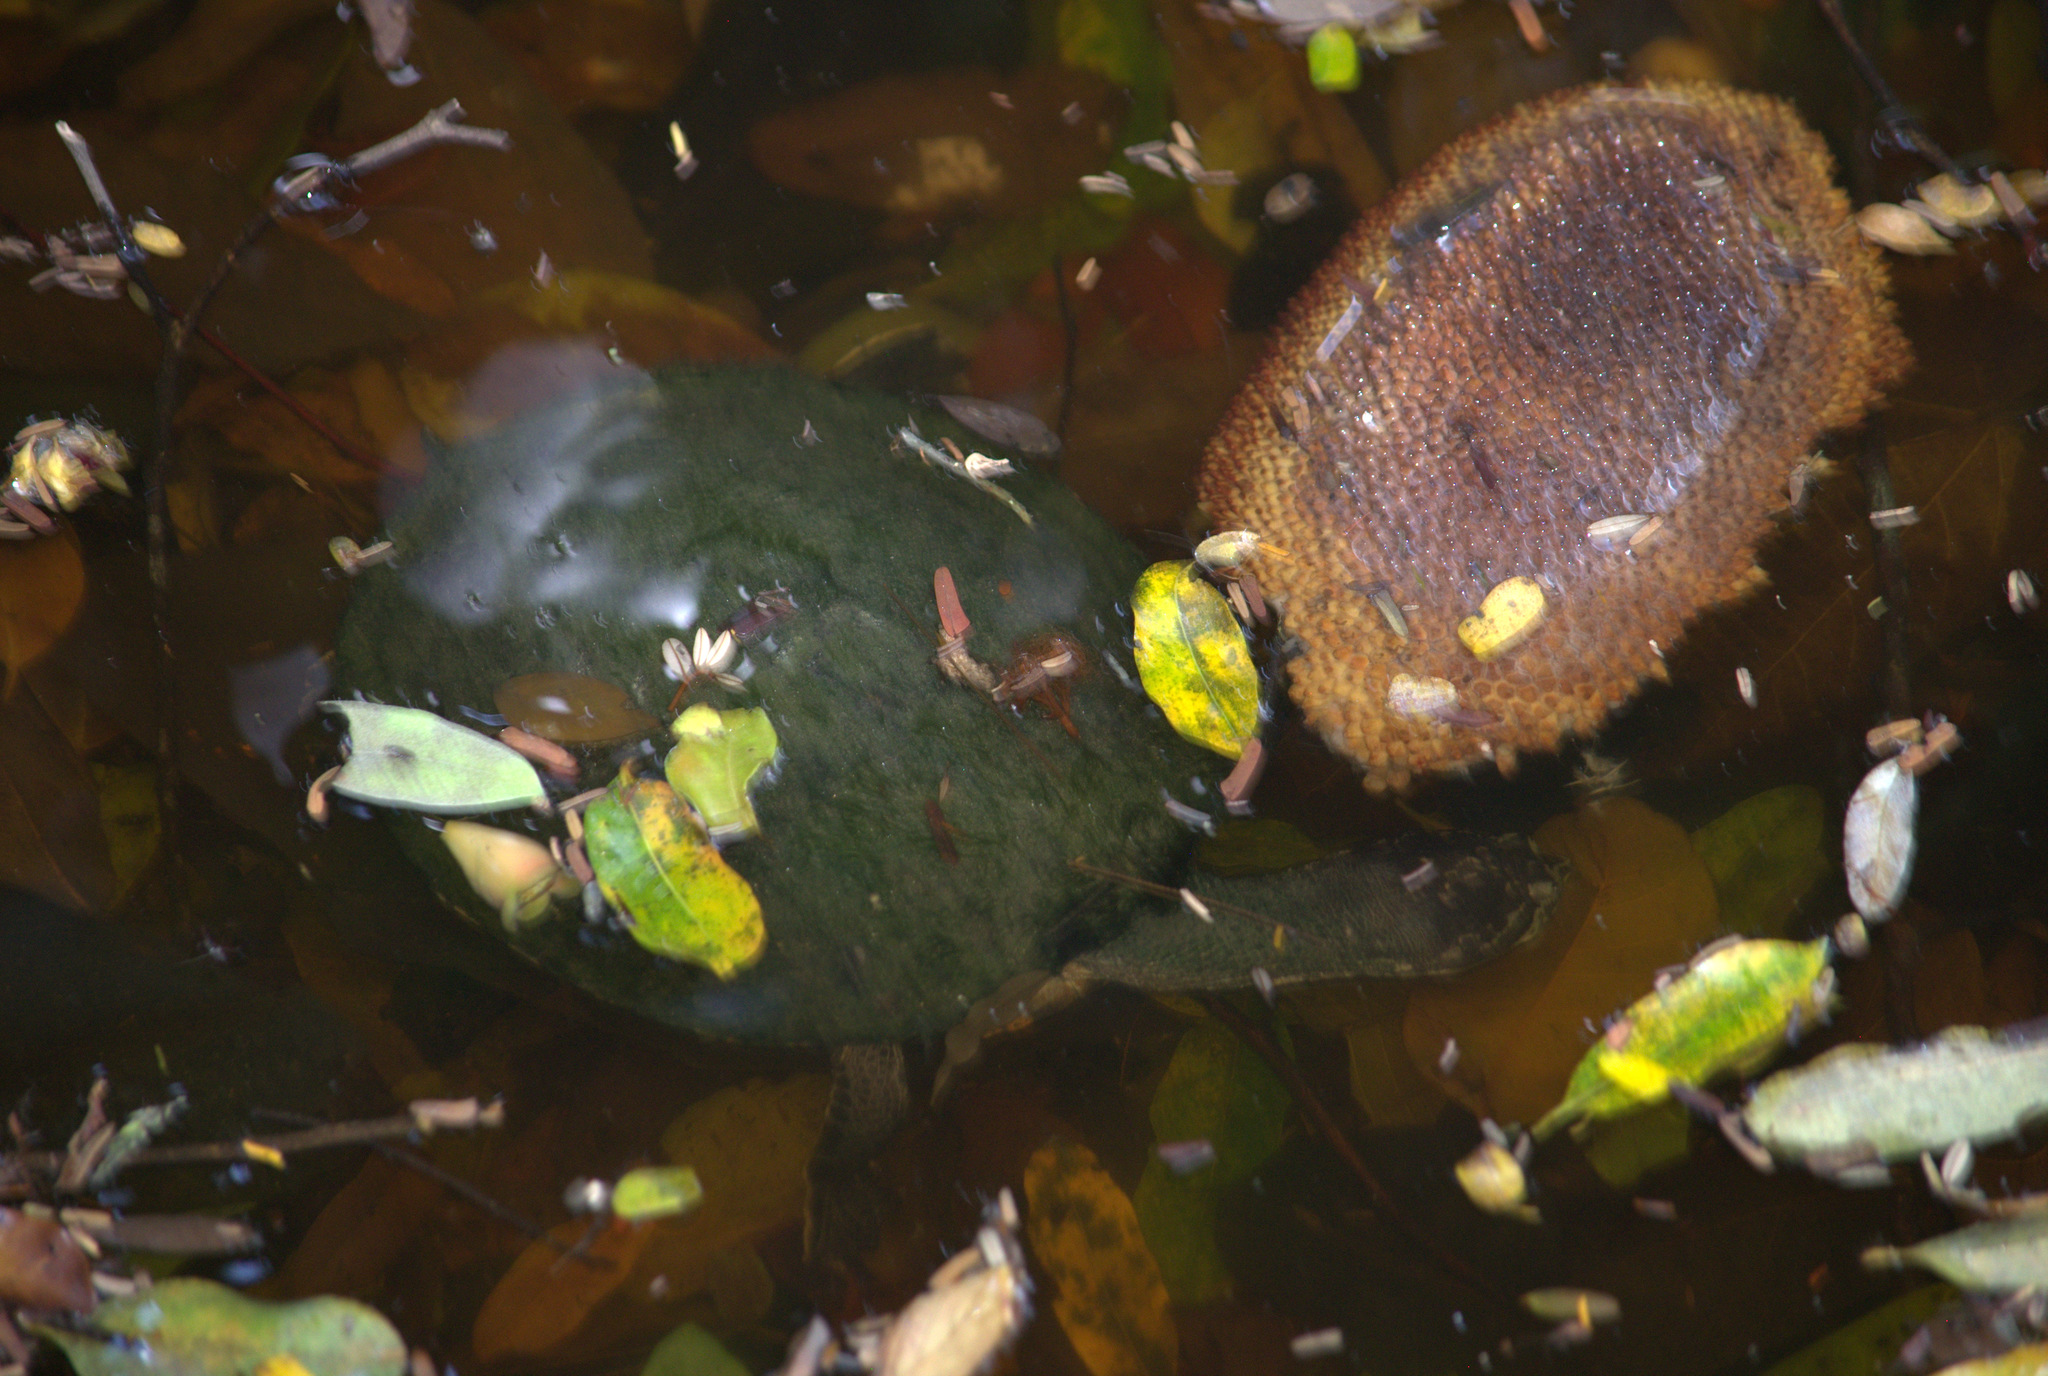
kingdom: Animalia
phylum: Chordata
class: Testudines
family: Chelidae
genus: Phrynops
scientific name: Phrynops geoffroanus
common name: Side-necked turtle of geoffroy
